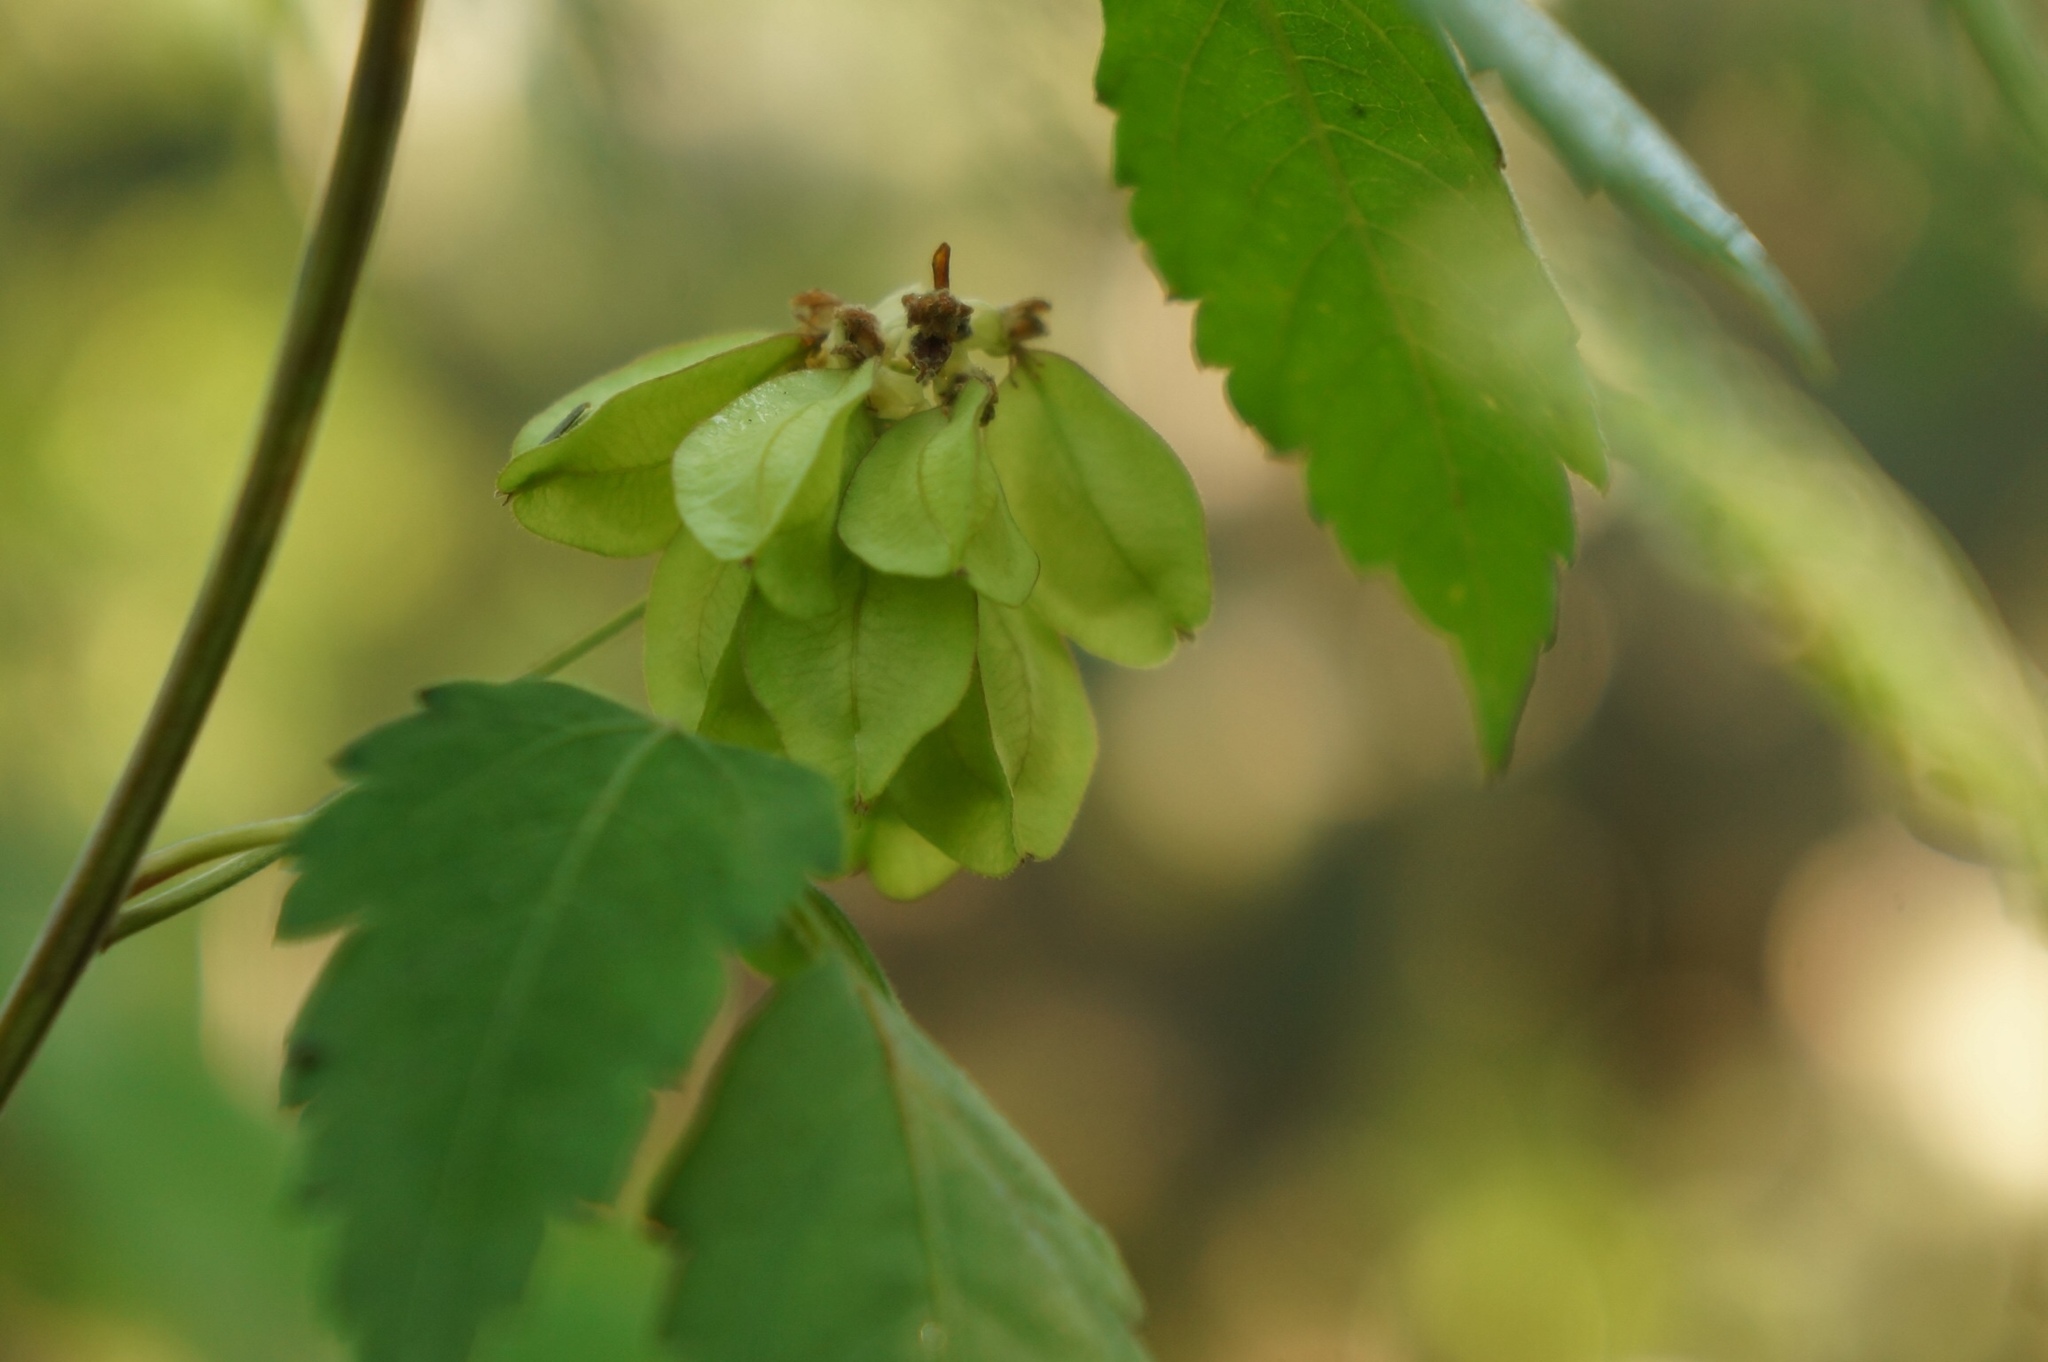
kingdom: Plantae
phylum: Tracheophyta
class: Magnoliopsida
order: Sapindales
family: Sapindaceae
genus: Urvillea
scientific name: Urvillea ulmacea
